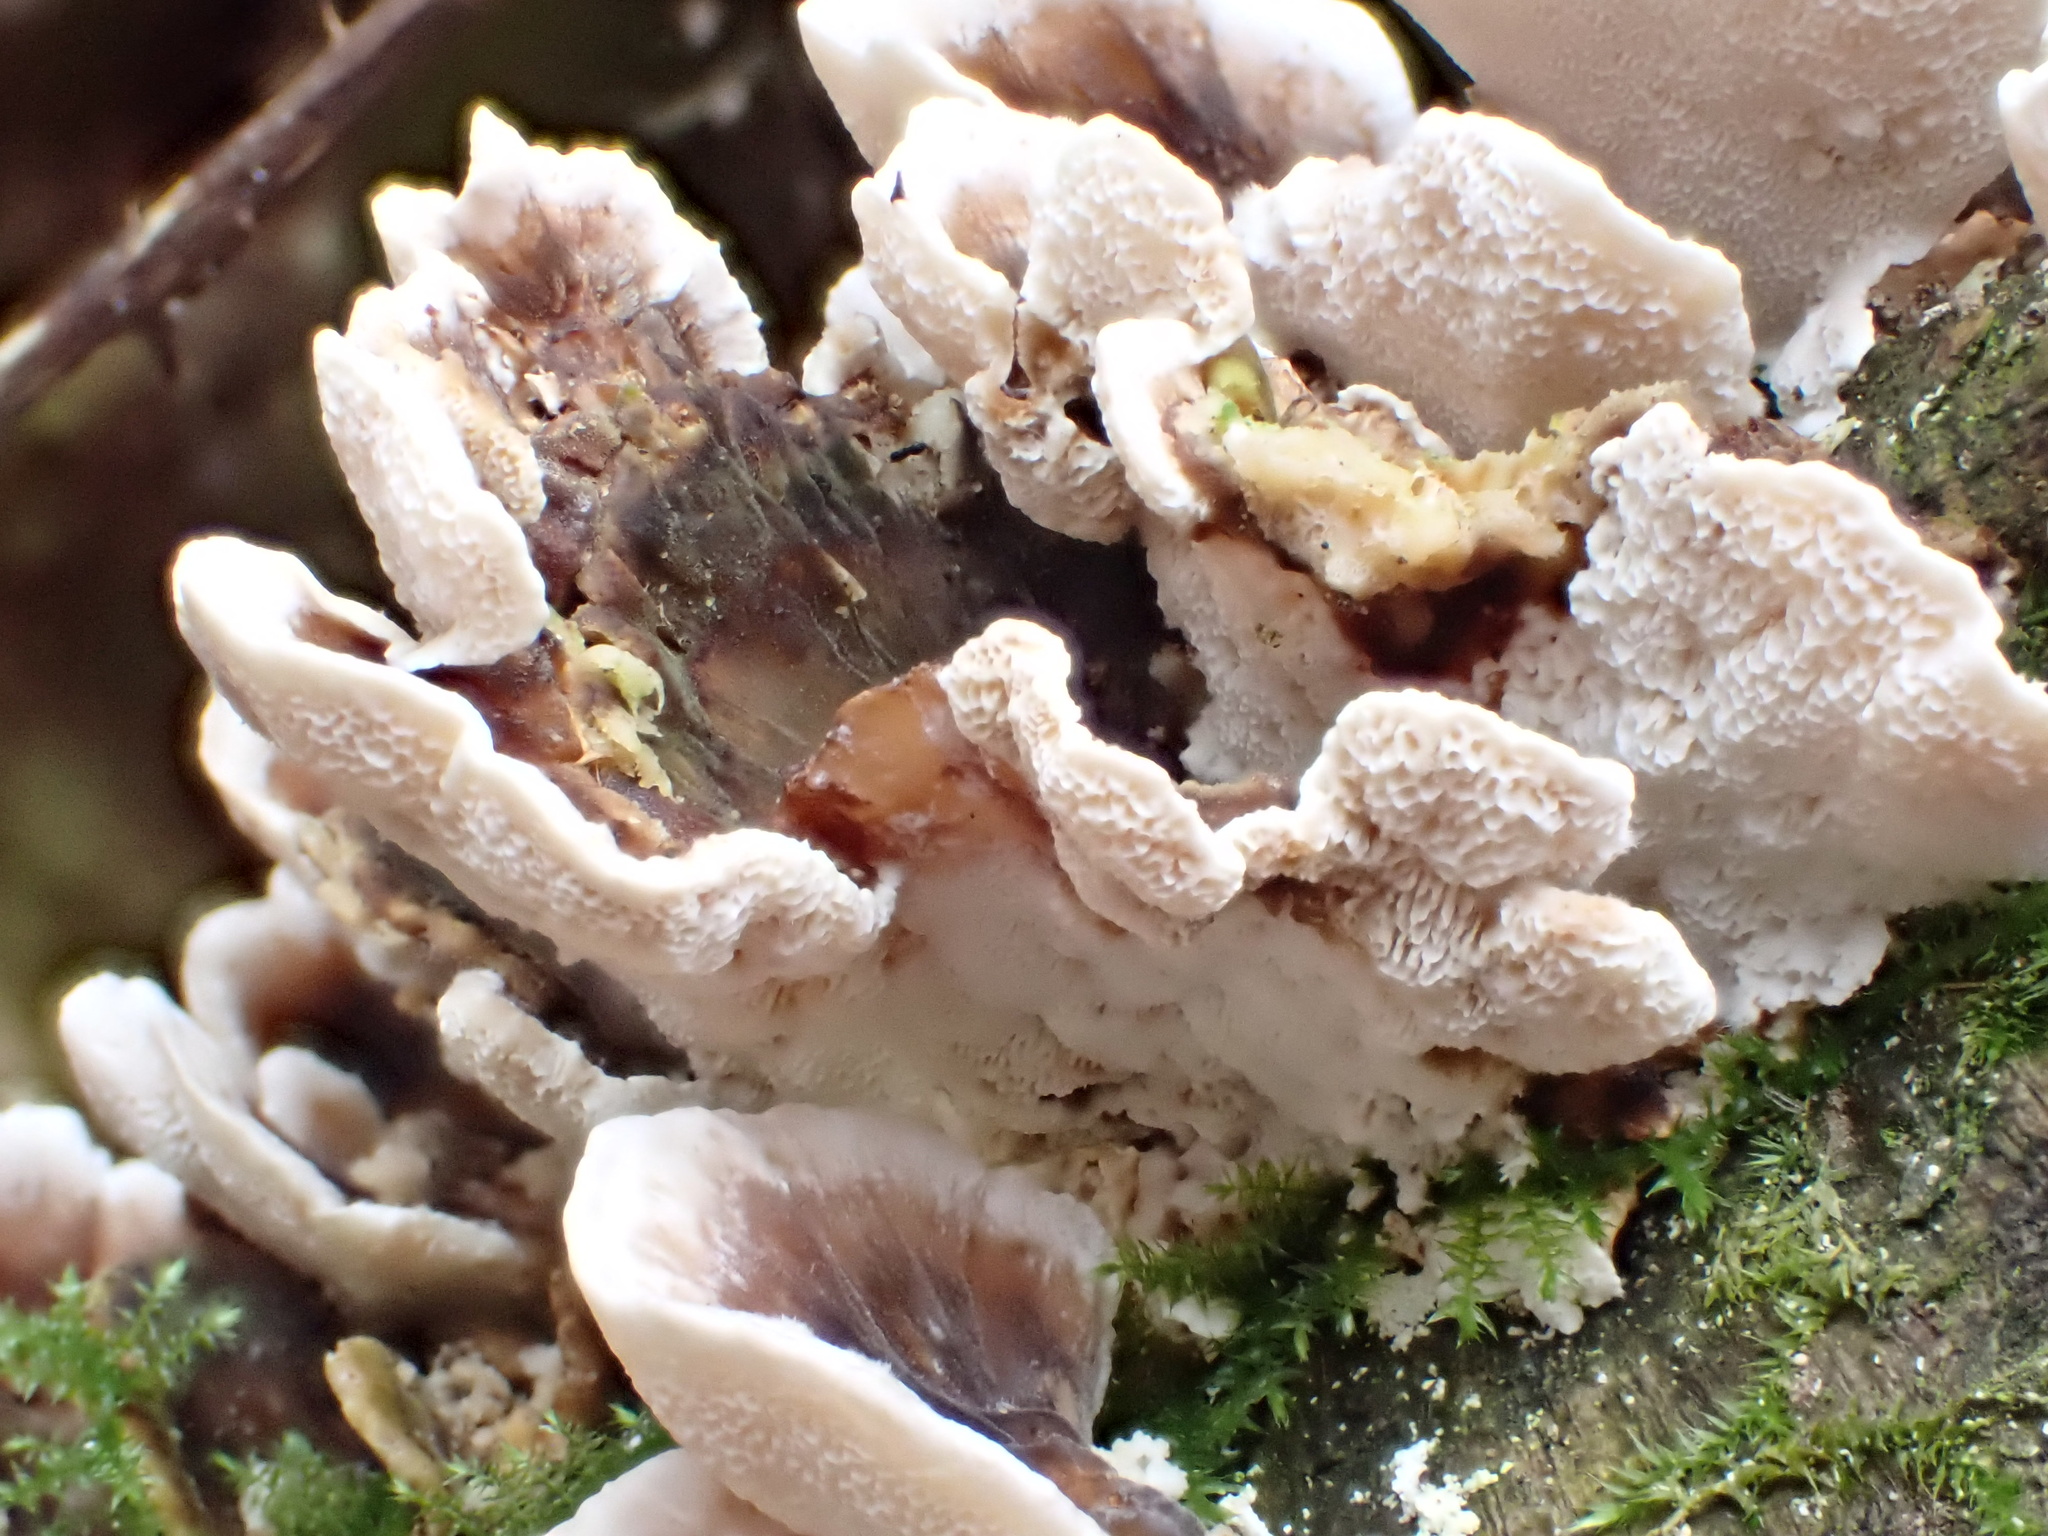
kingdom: Fungi
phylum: Basidiomycota
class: Agaricomycetes
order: Polyporales
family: Polyporaceae
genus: Trametes
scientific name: Trametes versicolor
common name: Turkeytail
